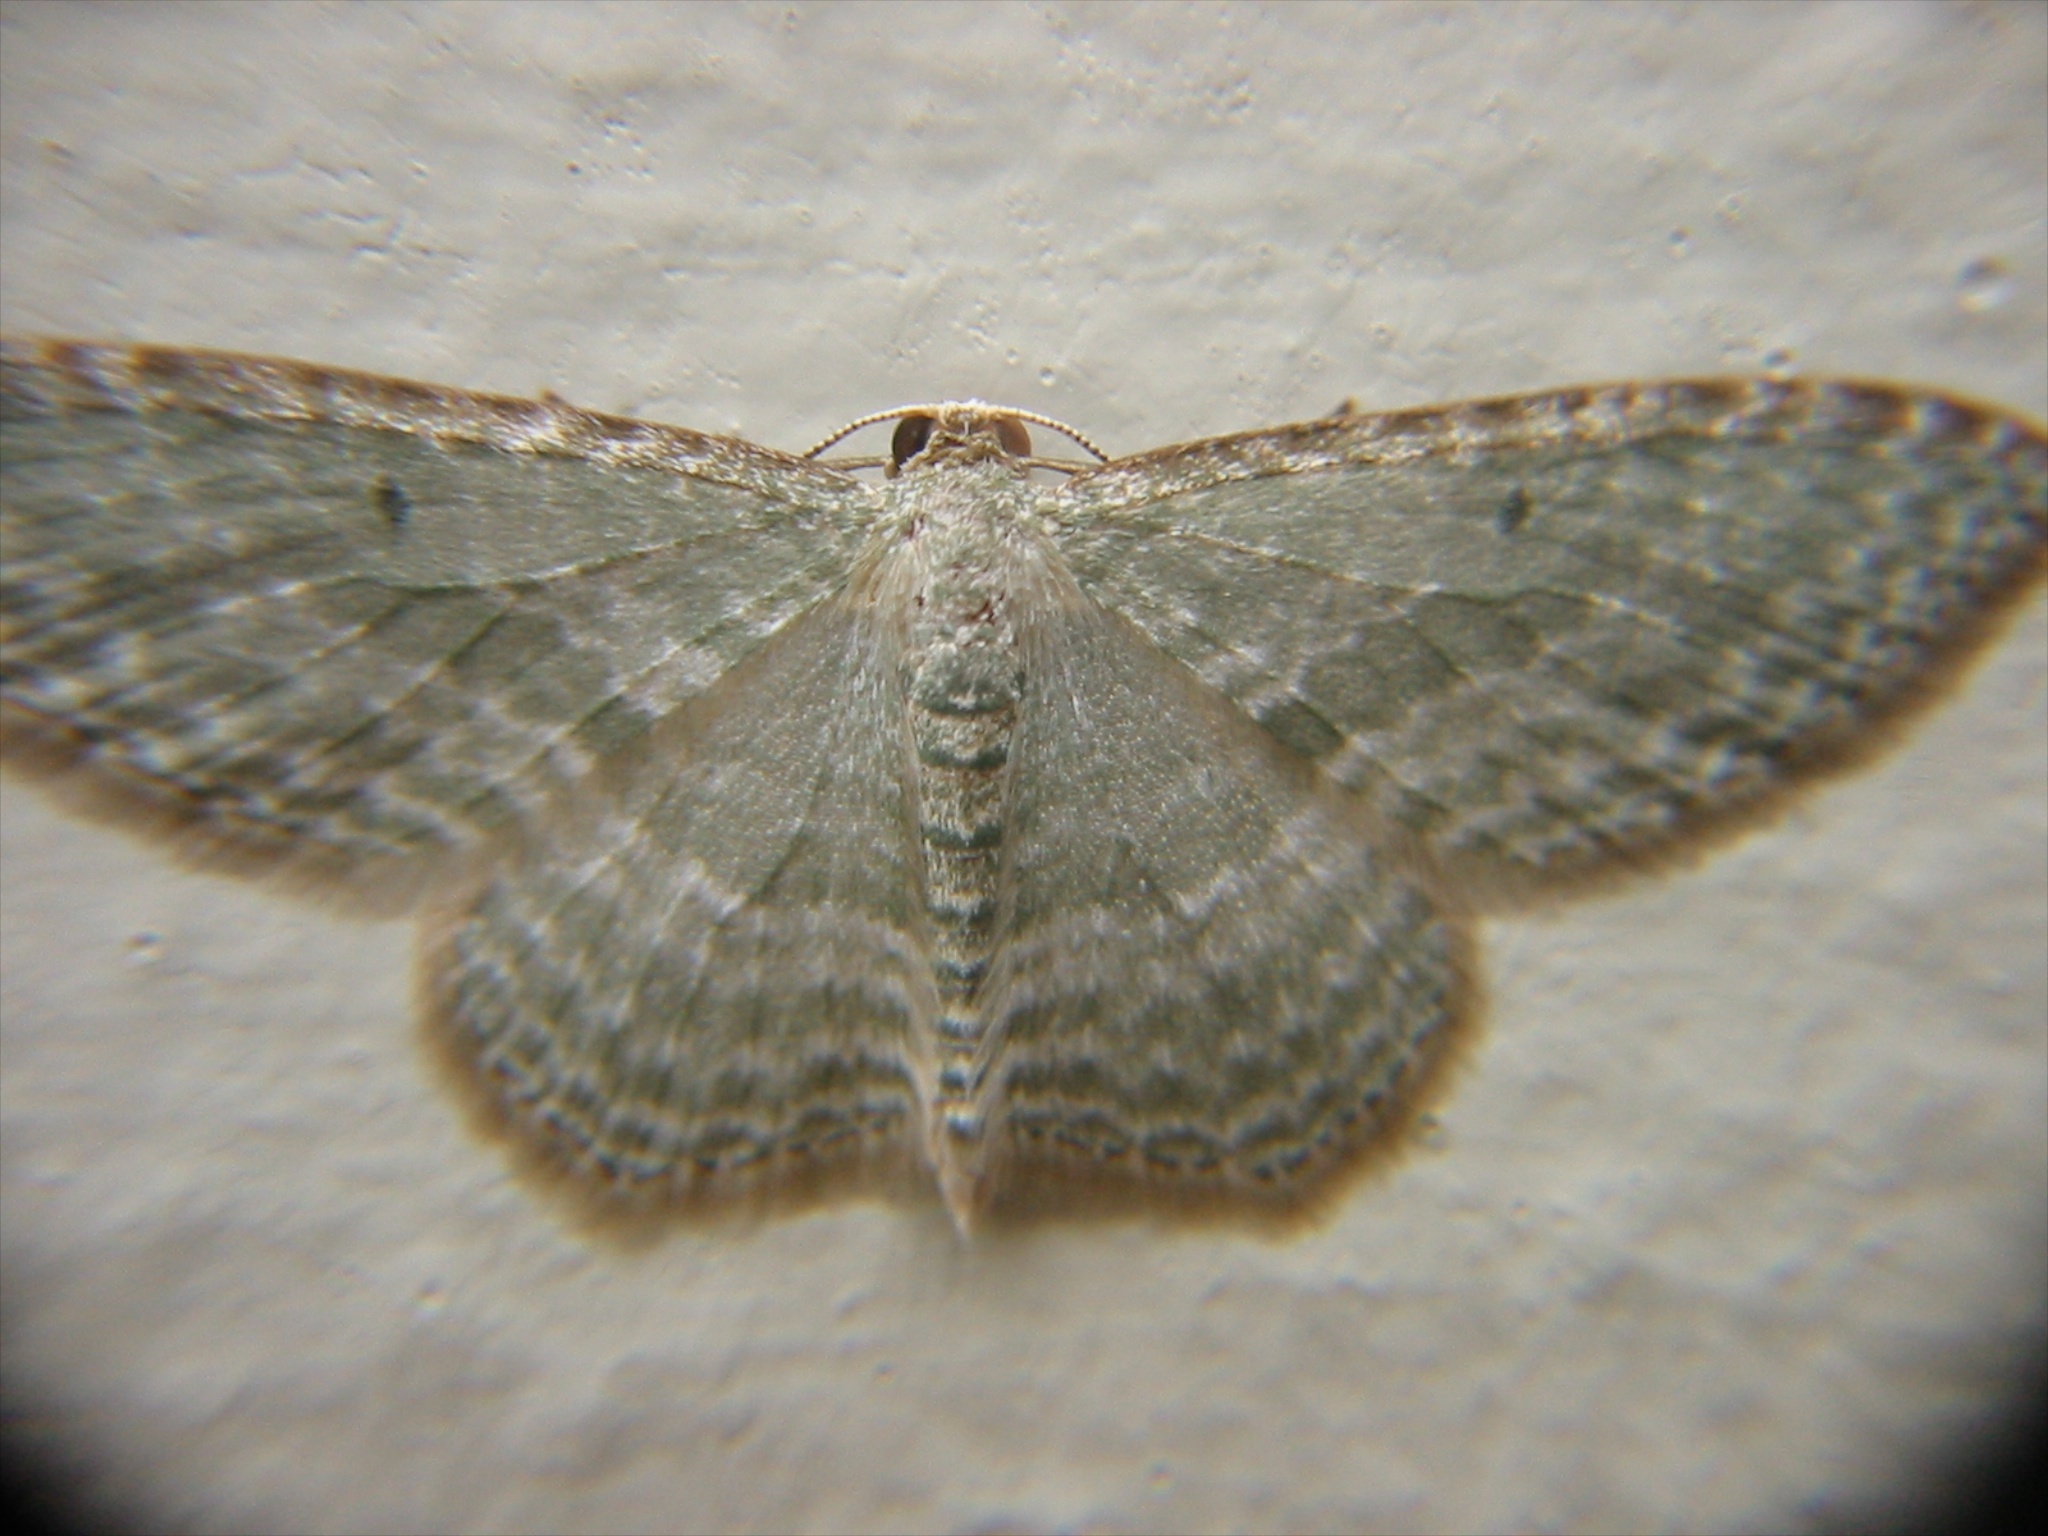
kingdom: Animalia
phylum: Arthropoda
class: Insecta
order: Lepidoptera
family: Geometridae
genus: Poecilasthena
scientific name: Poecilasthena pulchraria
